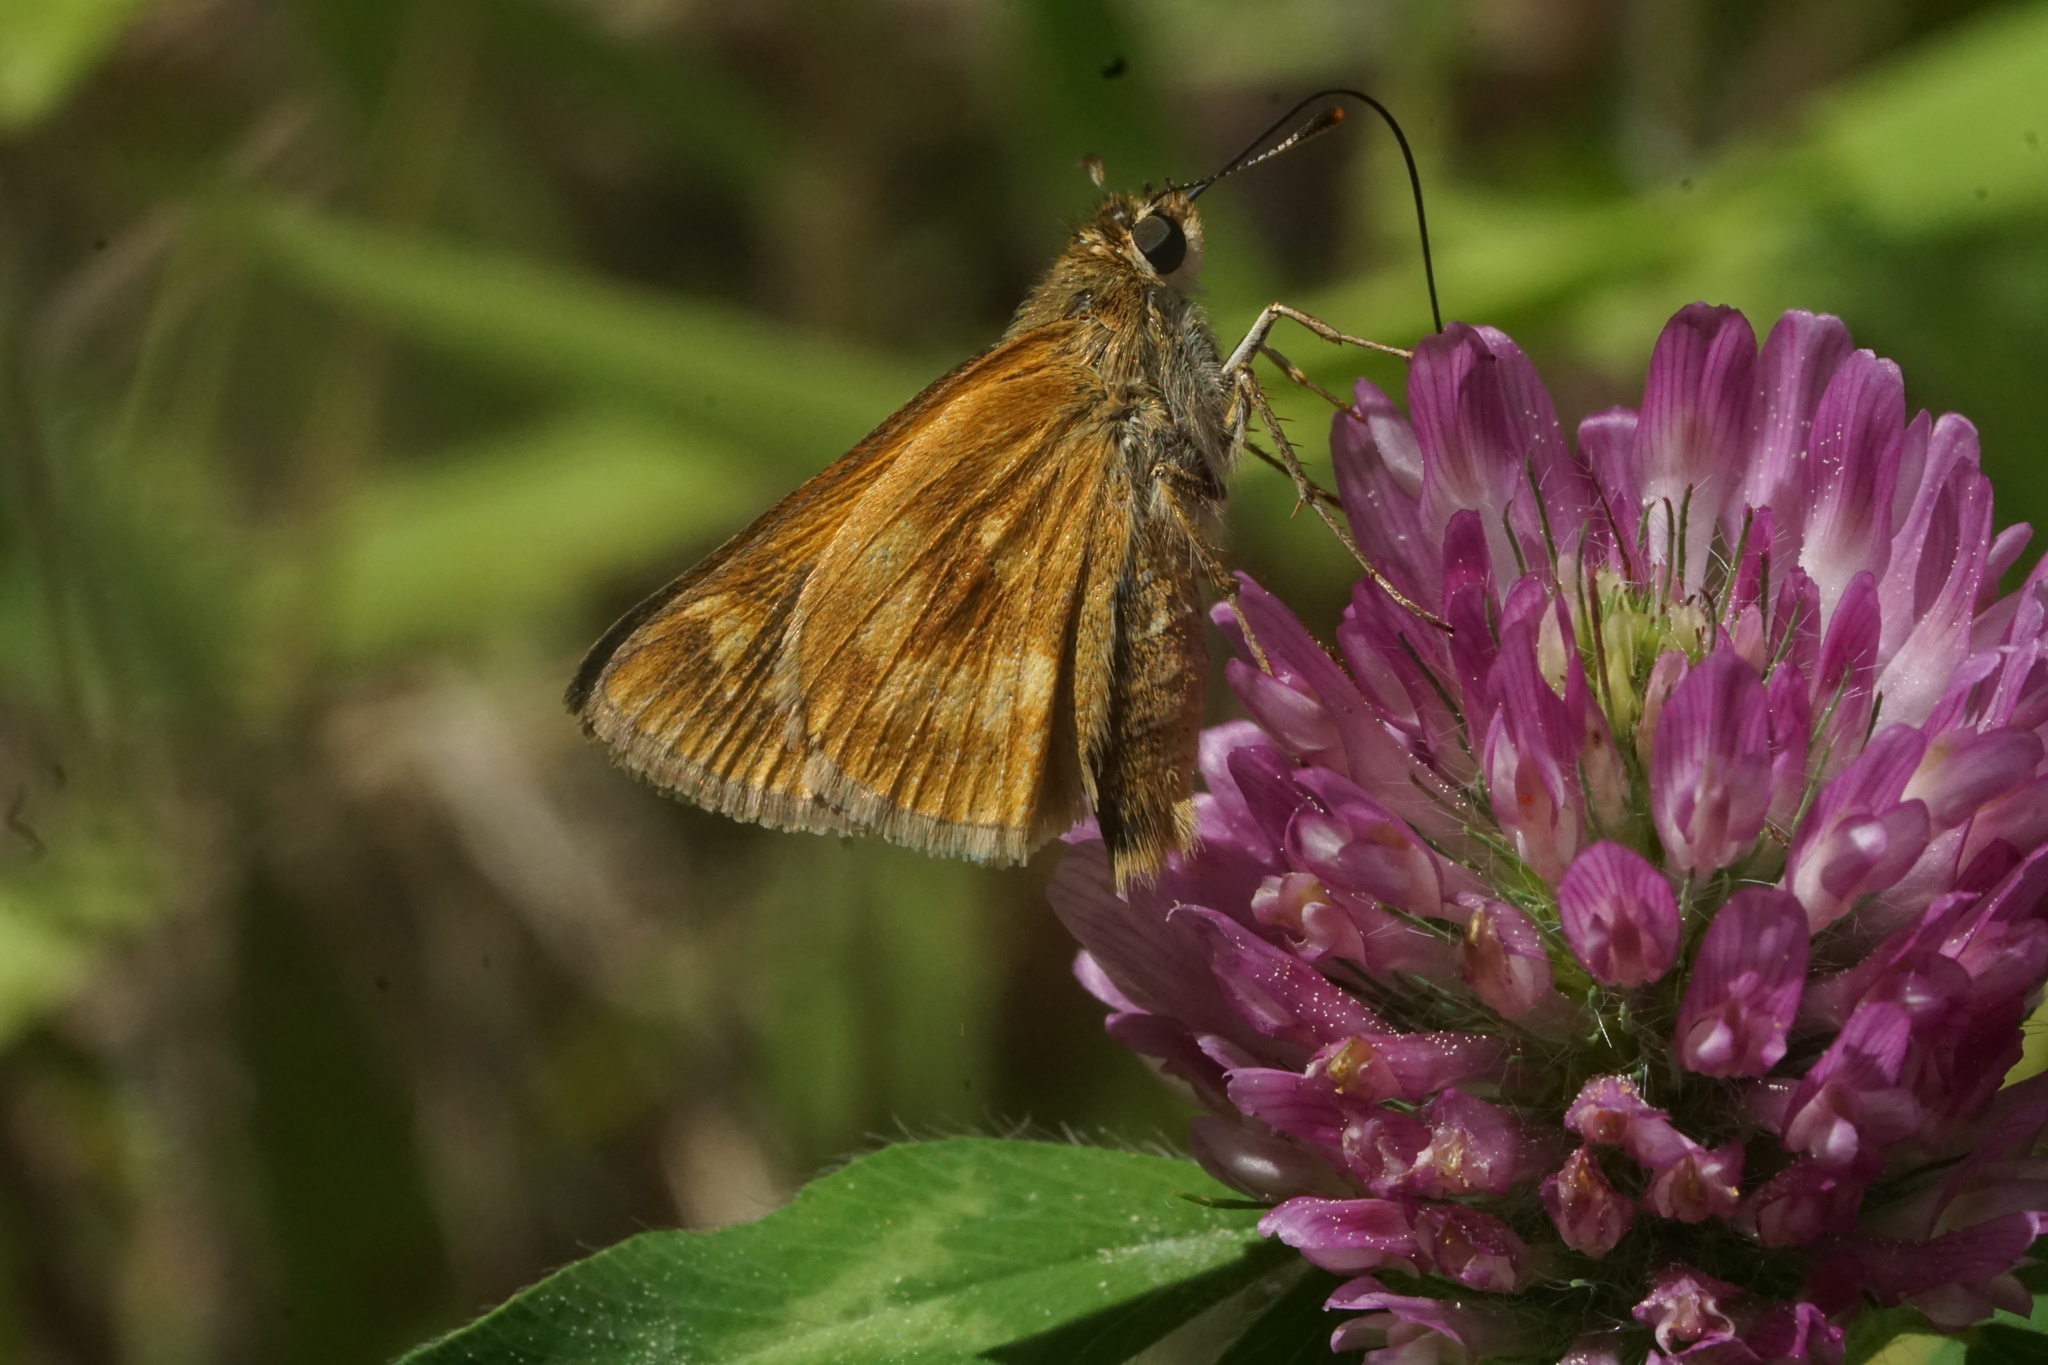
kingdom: Animalia
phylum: Arthropoda
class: Insecta
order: Lepidoptera
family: Hesperiidae
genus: Polites
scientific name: Polites mystic
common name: Long dash
